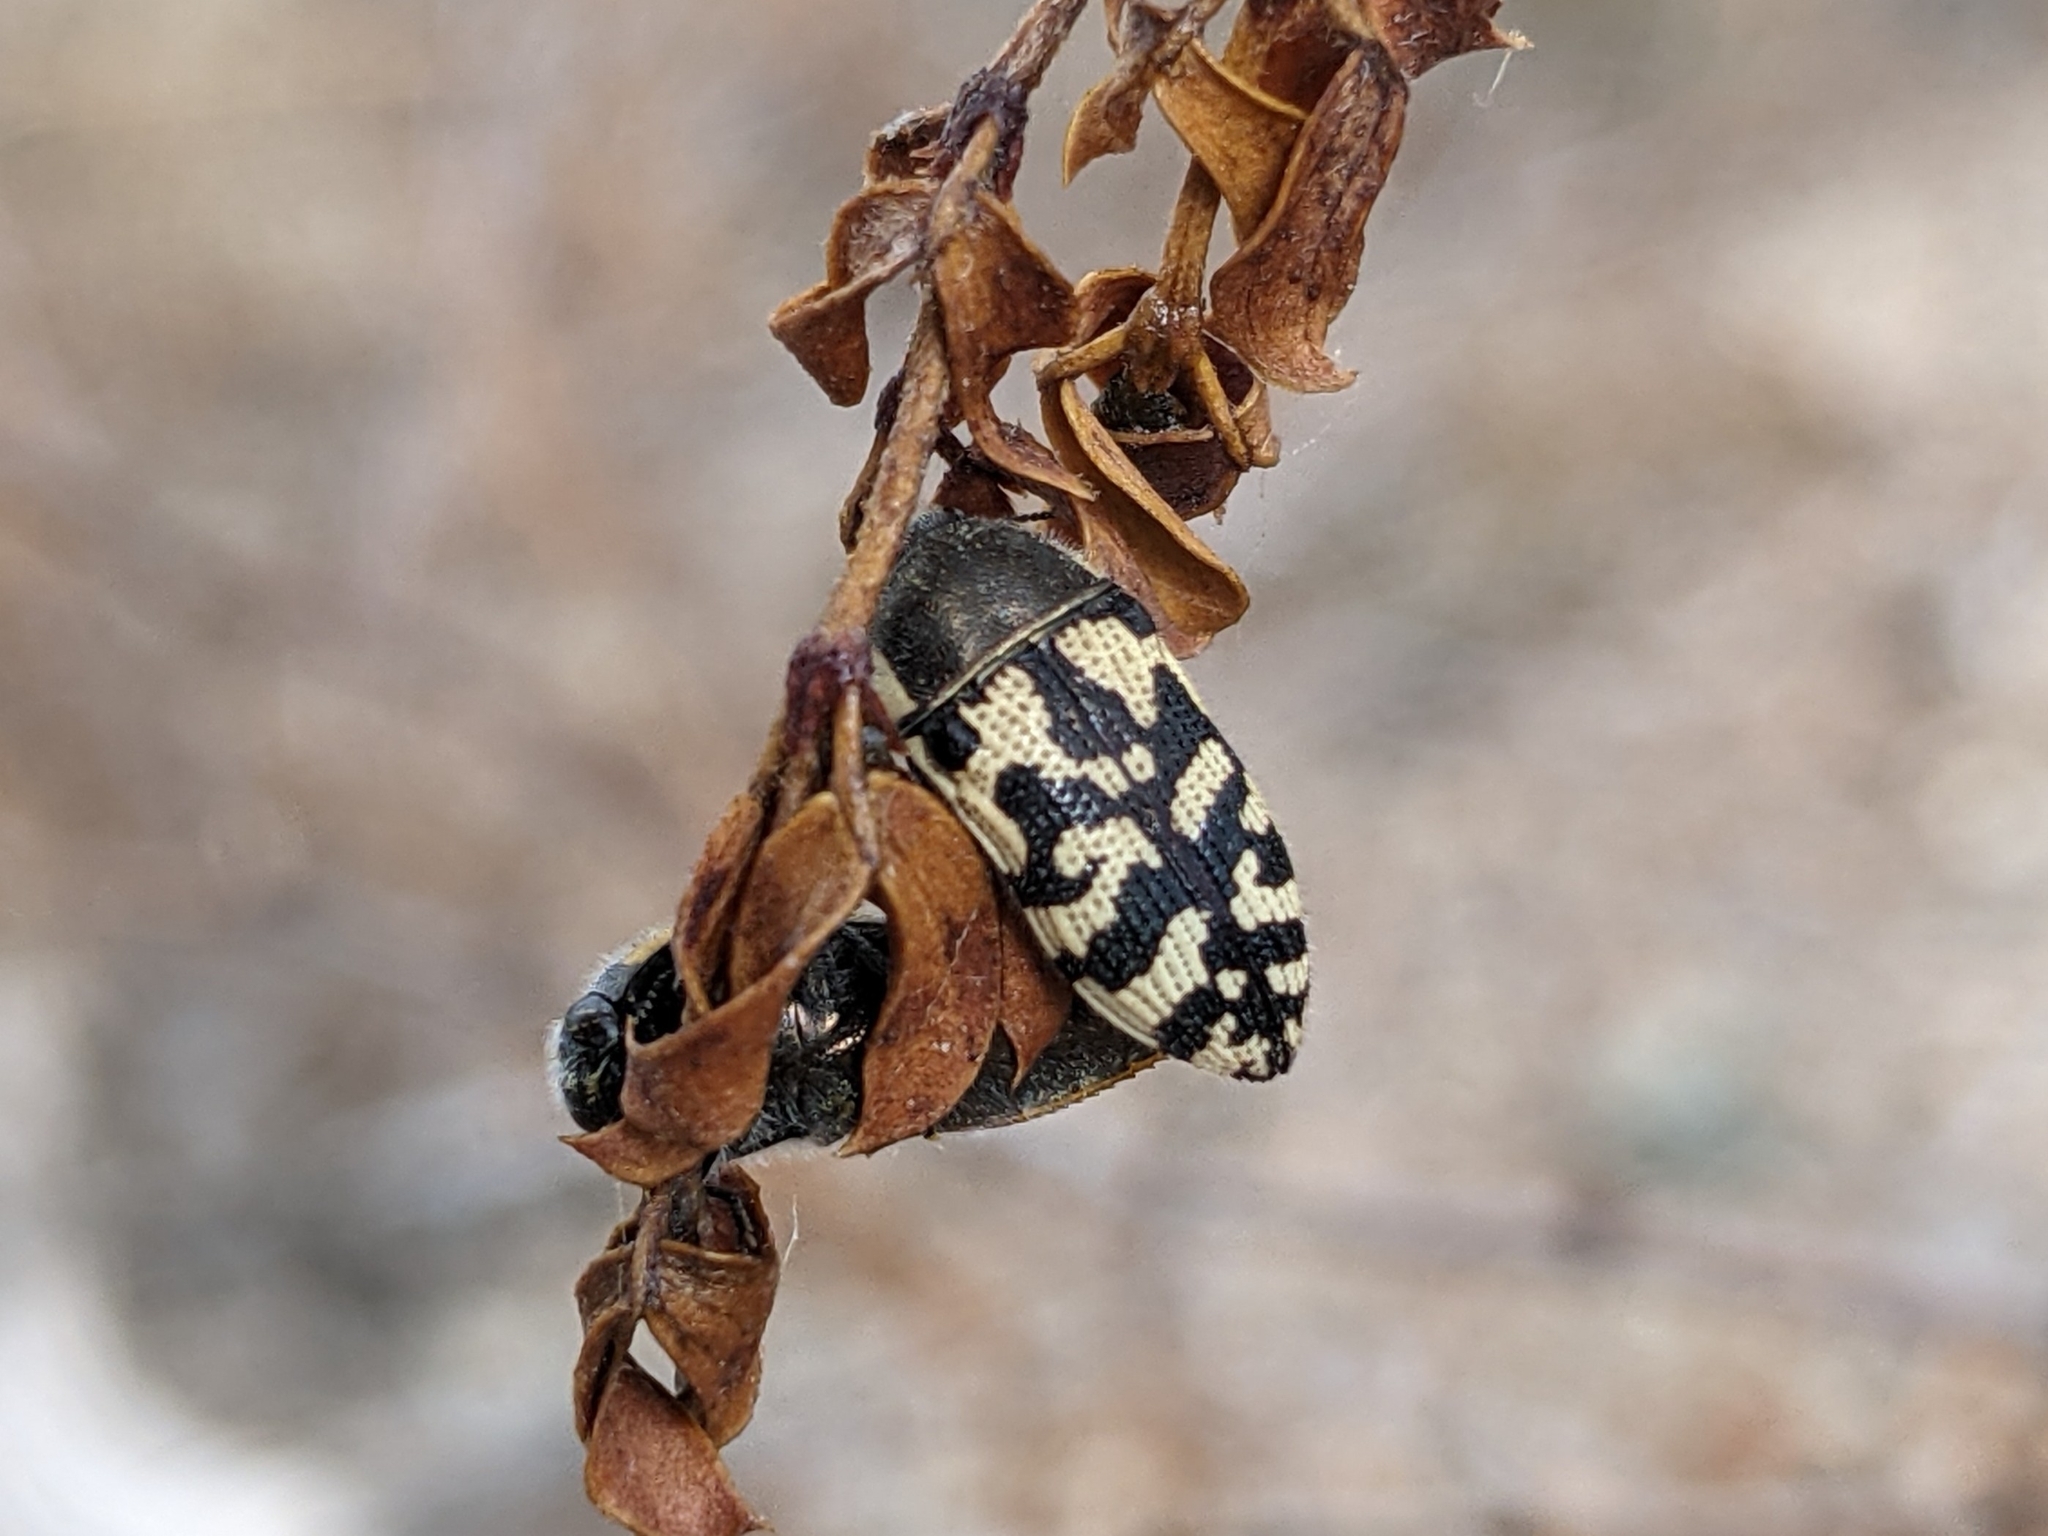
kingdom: Animalia
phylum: Arthropoda
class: Insecta
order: Coleoptera
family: Buprestidae
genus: Acmaeodera
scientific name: Acmaeodera mixta
